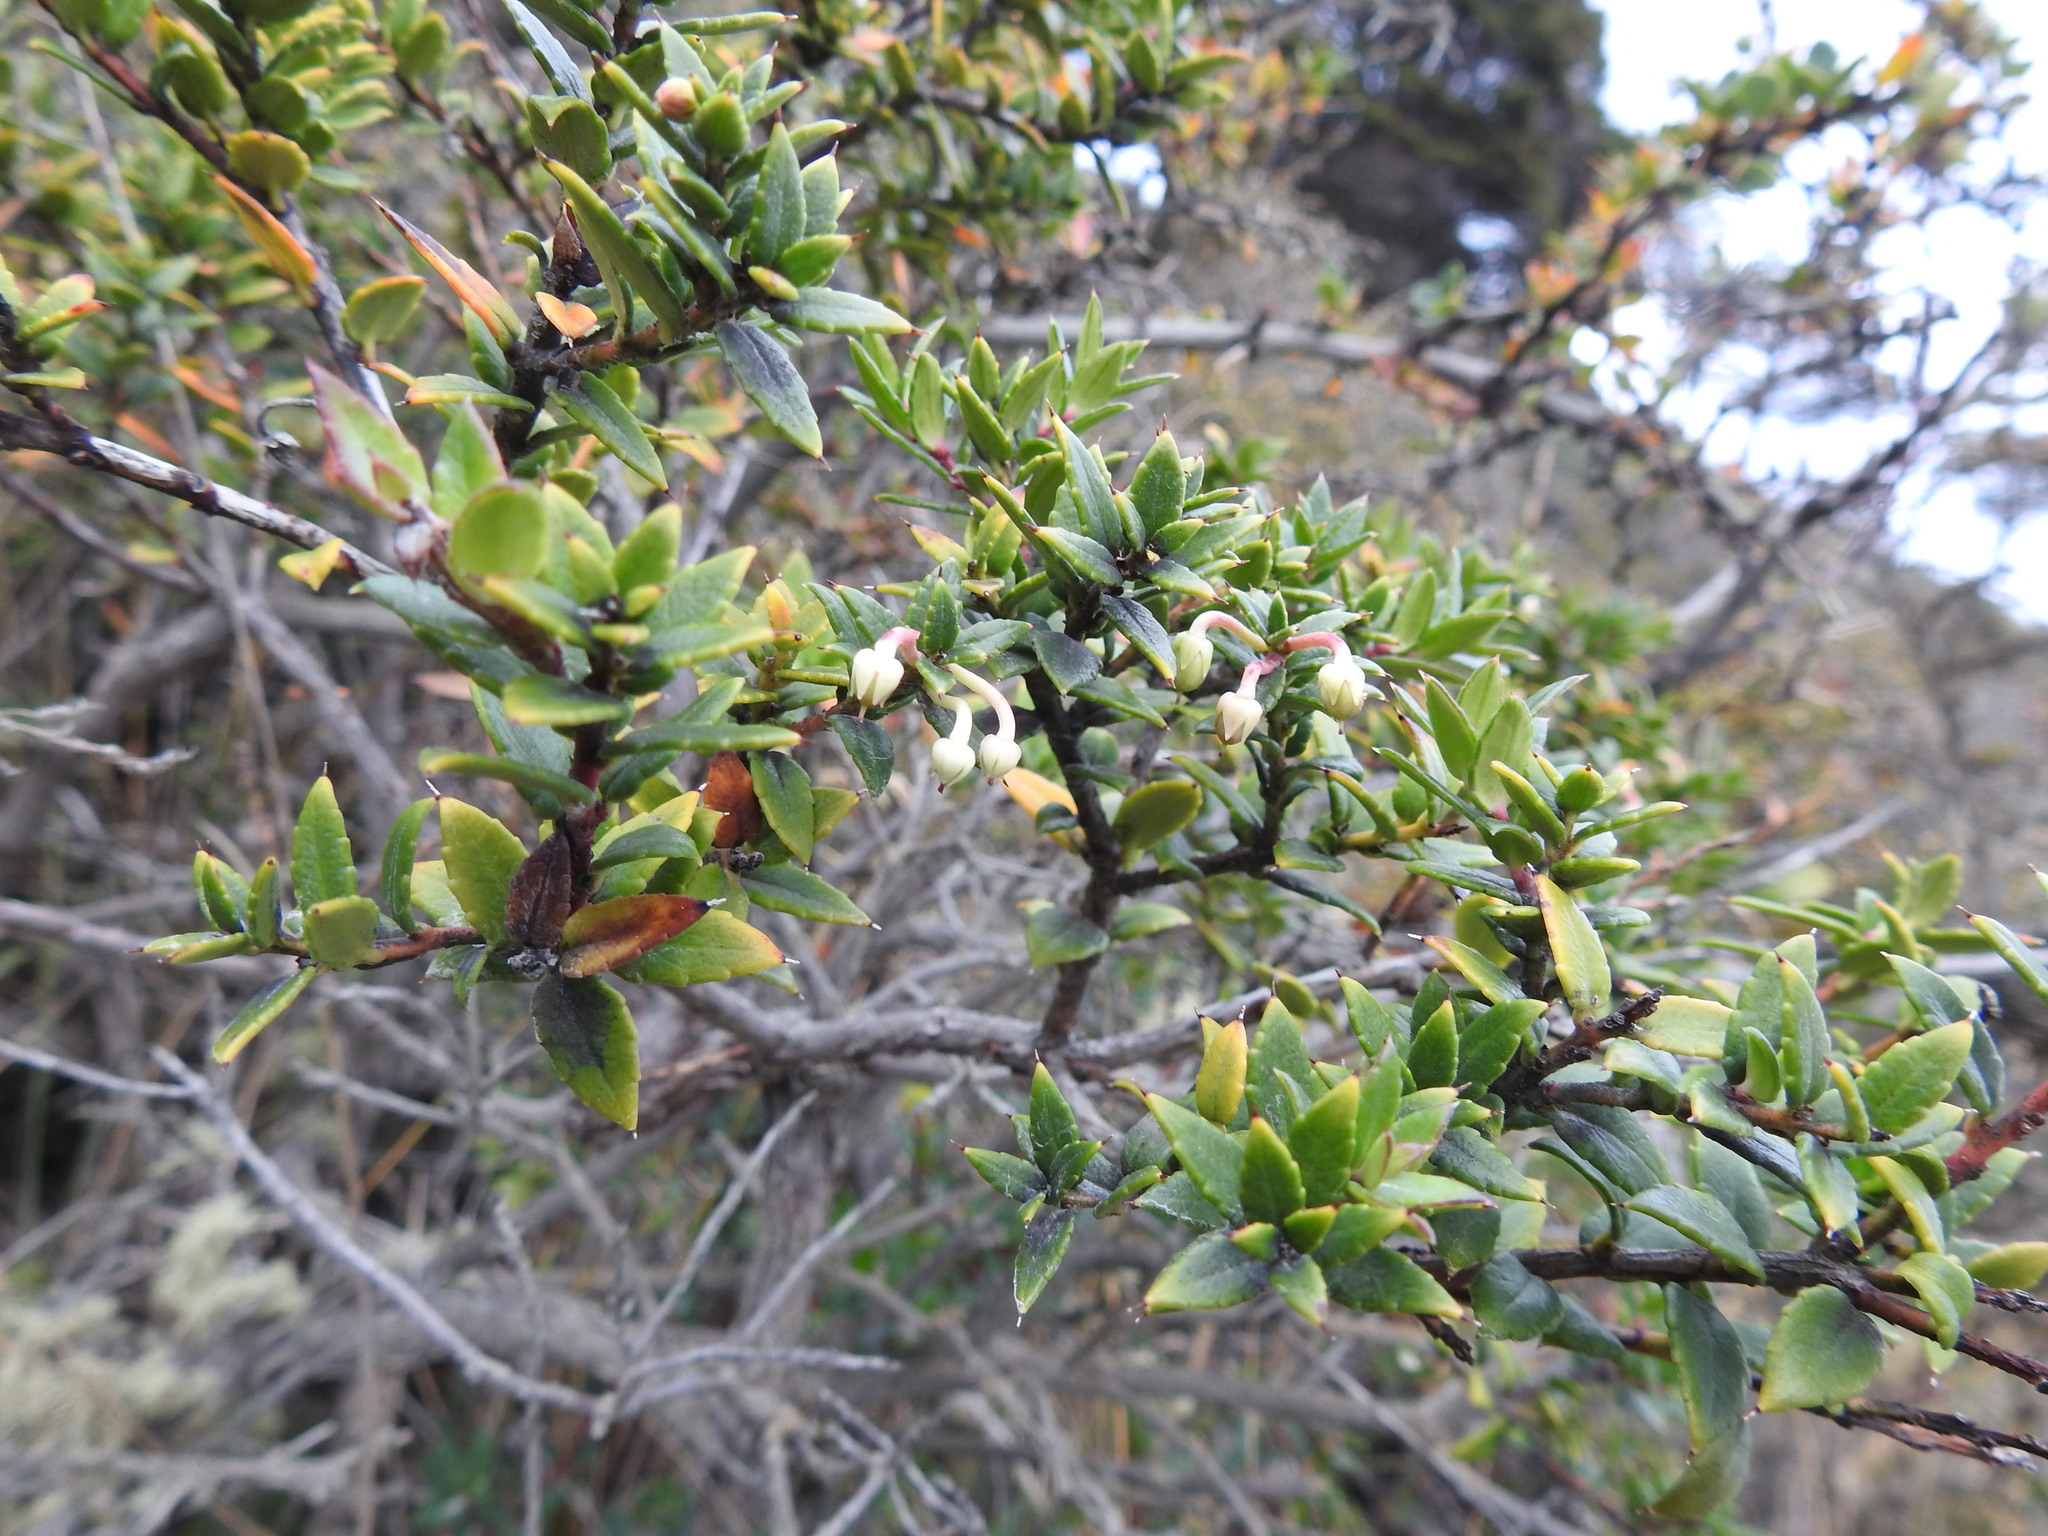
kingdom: Plantae
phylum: Tracheophyta
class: Magnoliopsida
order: Ericales
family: Ericaceae
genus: Gaultheria
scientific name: Gaultheria mucronata
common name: Prickly heath
